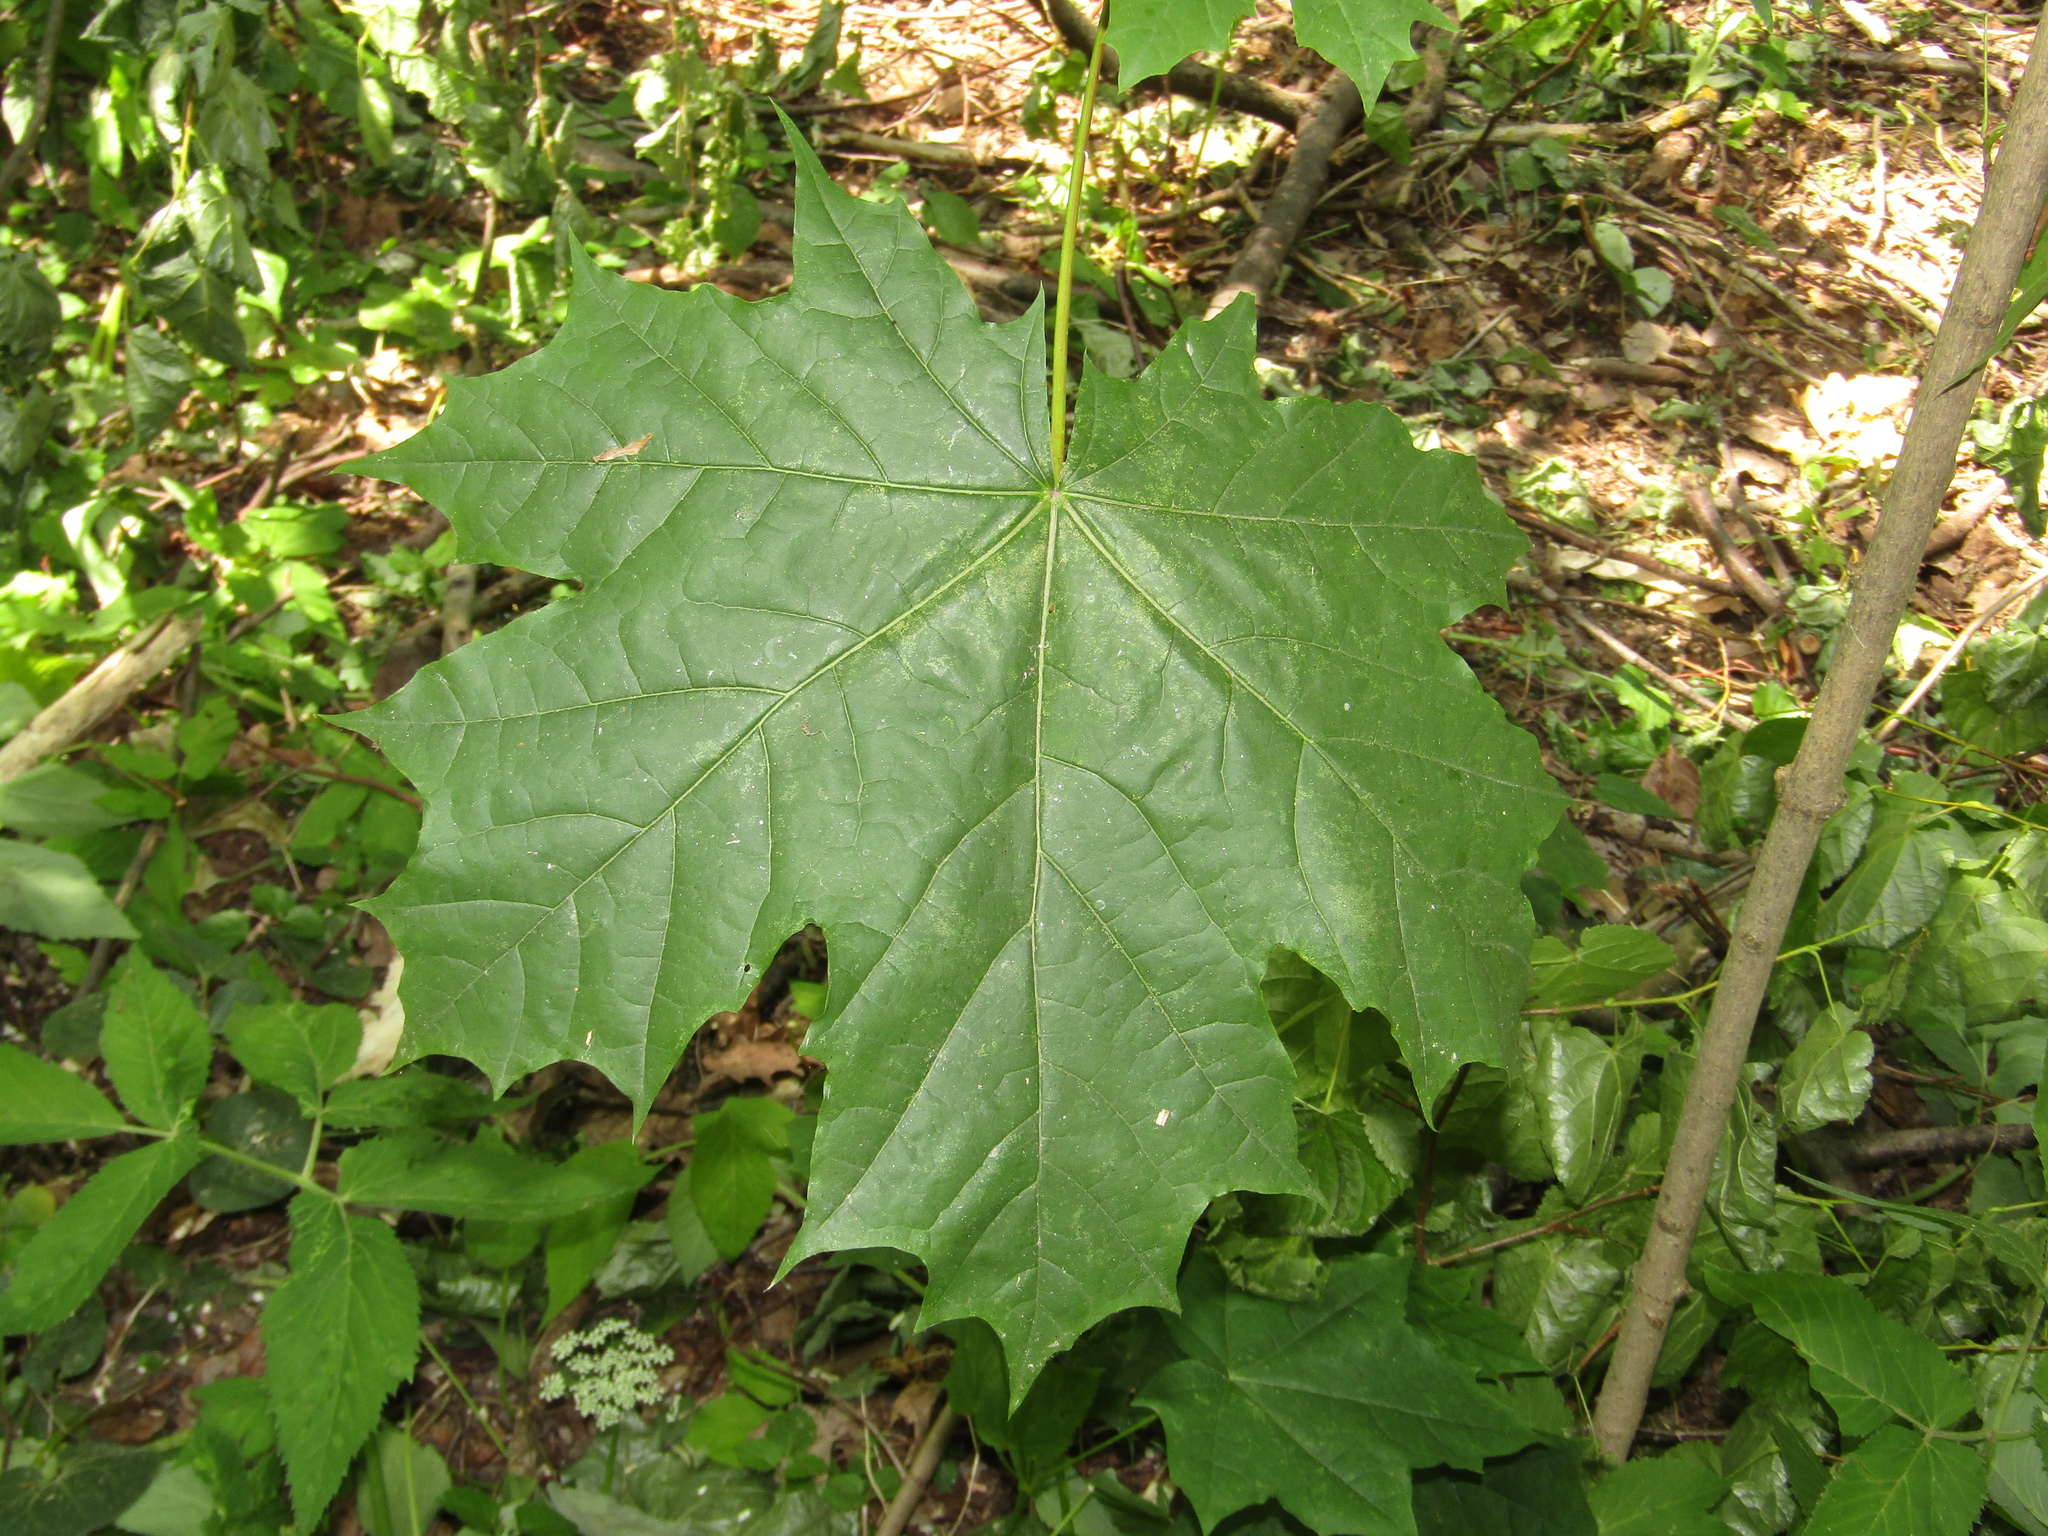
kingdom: Plantae
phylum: Tracheophyta
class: Magnoliopsida
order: Sapindales
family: Sapindaceae
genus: Acer
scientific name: Acer platanoides
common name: Norway maple
